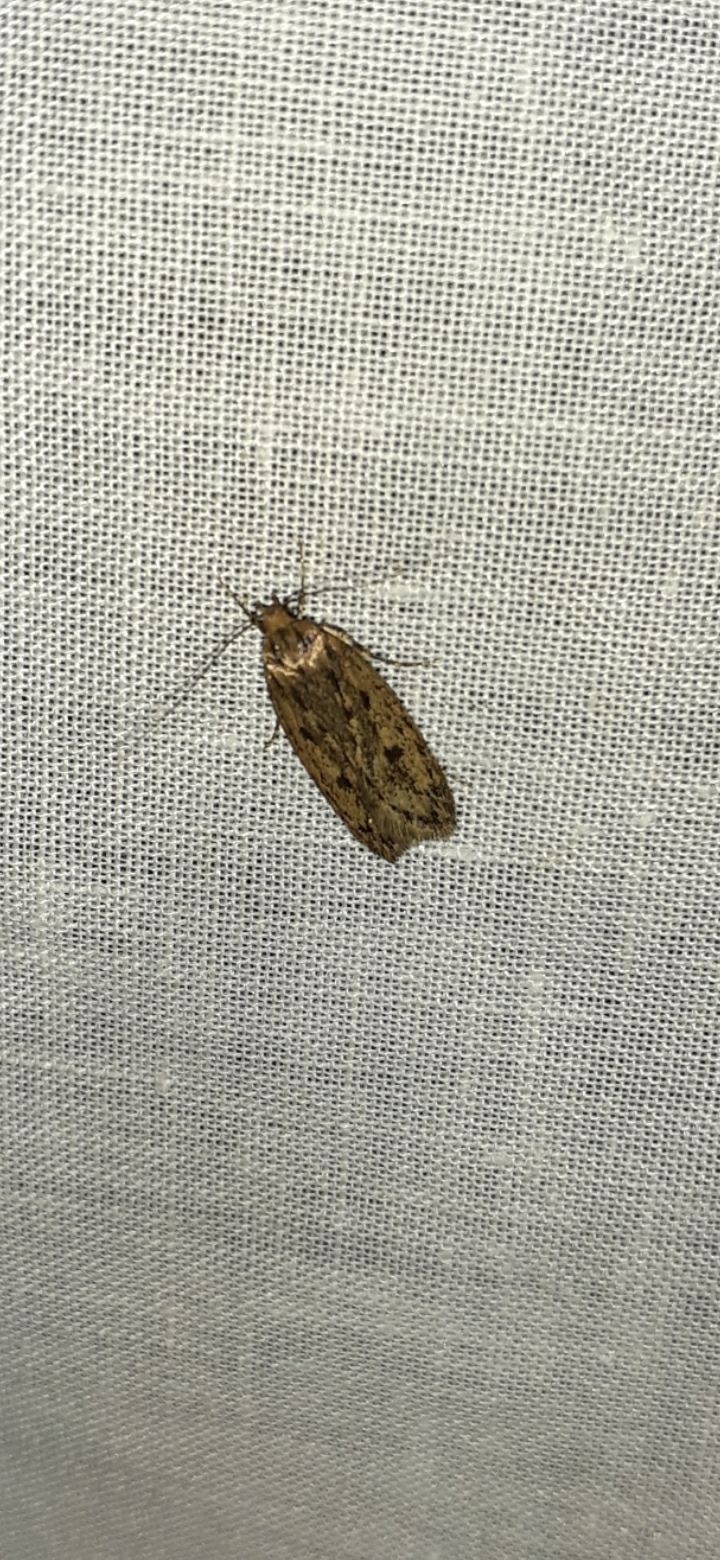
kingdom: Animalia
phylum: Arthropoda
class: Insecta
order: Lepidoptera
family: Oecophoridae
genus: Hofmannophila
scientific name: Hofmannophila pseudospretella
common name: Brown house moth
